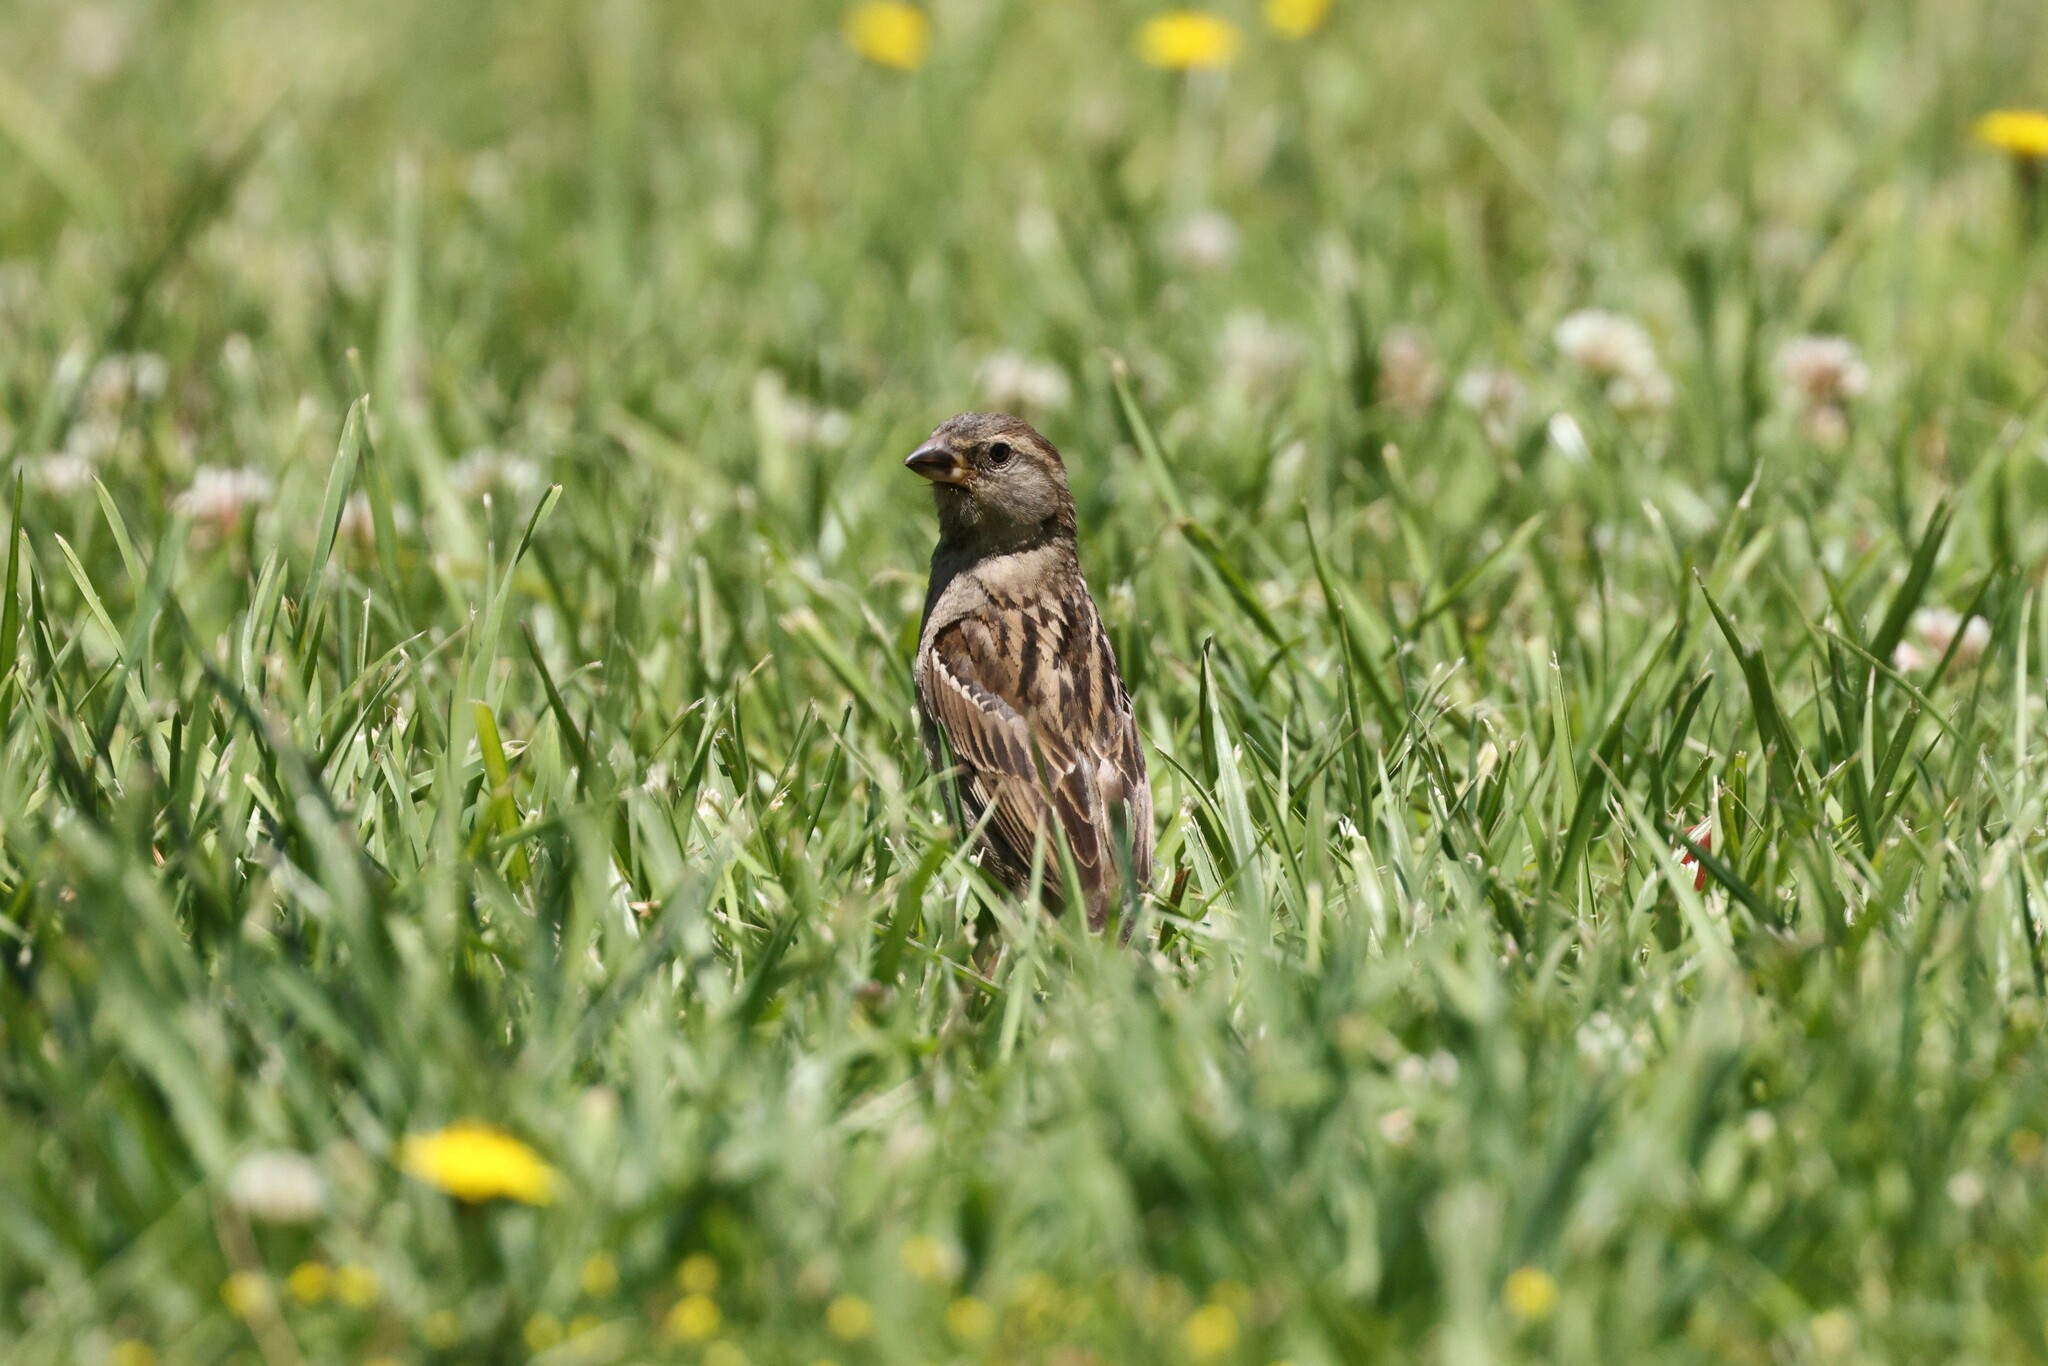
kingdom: Animalia
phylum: Chordata
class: Aves
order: Passeriformes
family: Passeridae
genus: Passer
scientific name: Passer domesticus
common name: House sparrow
